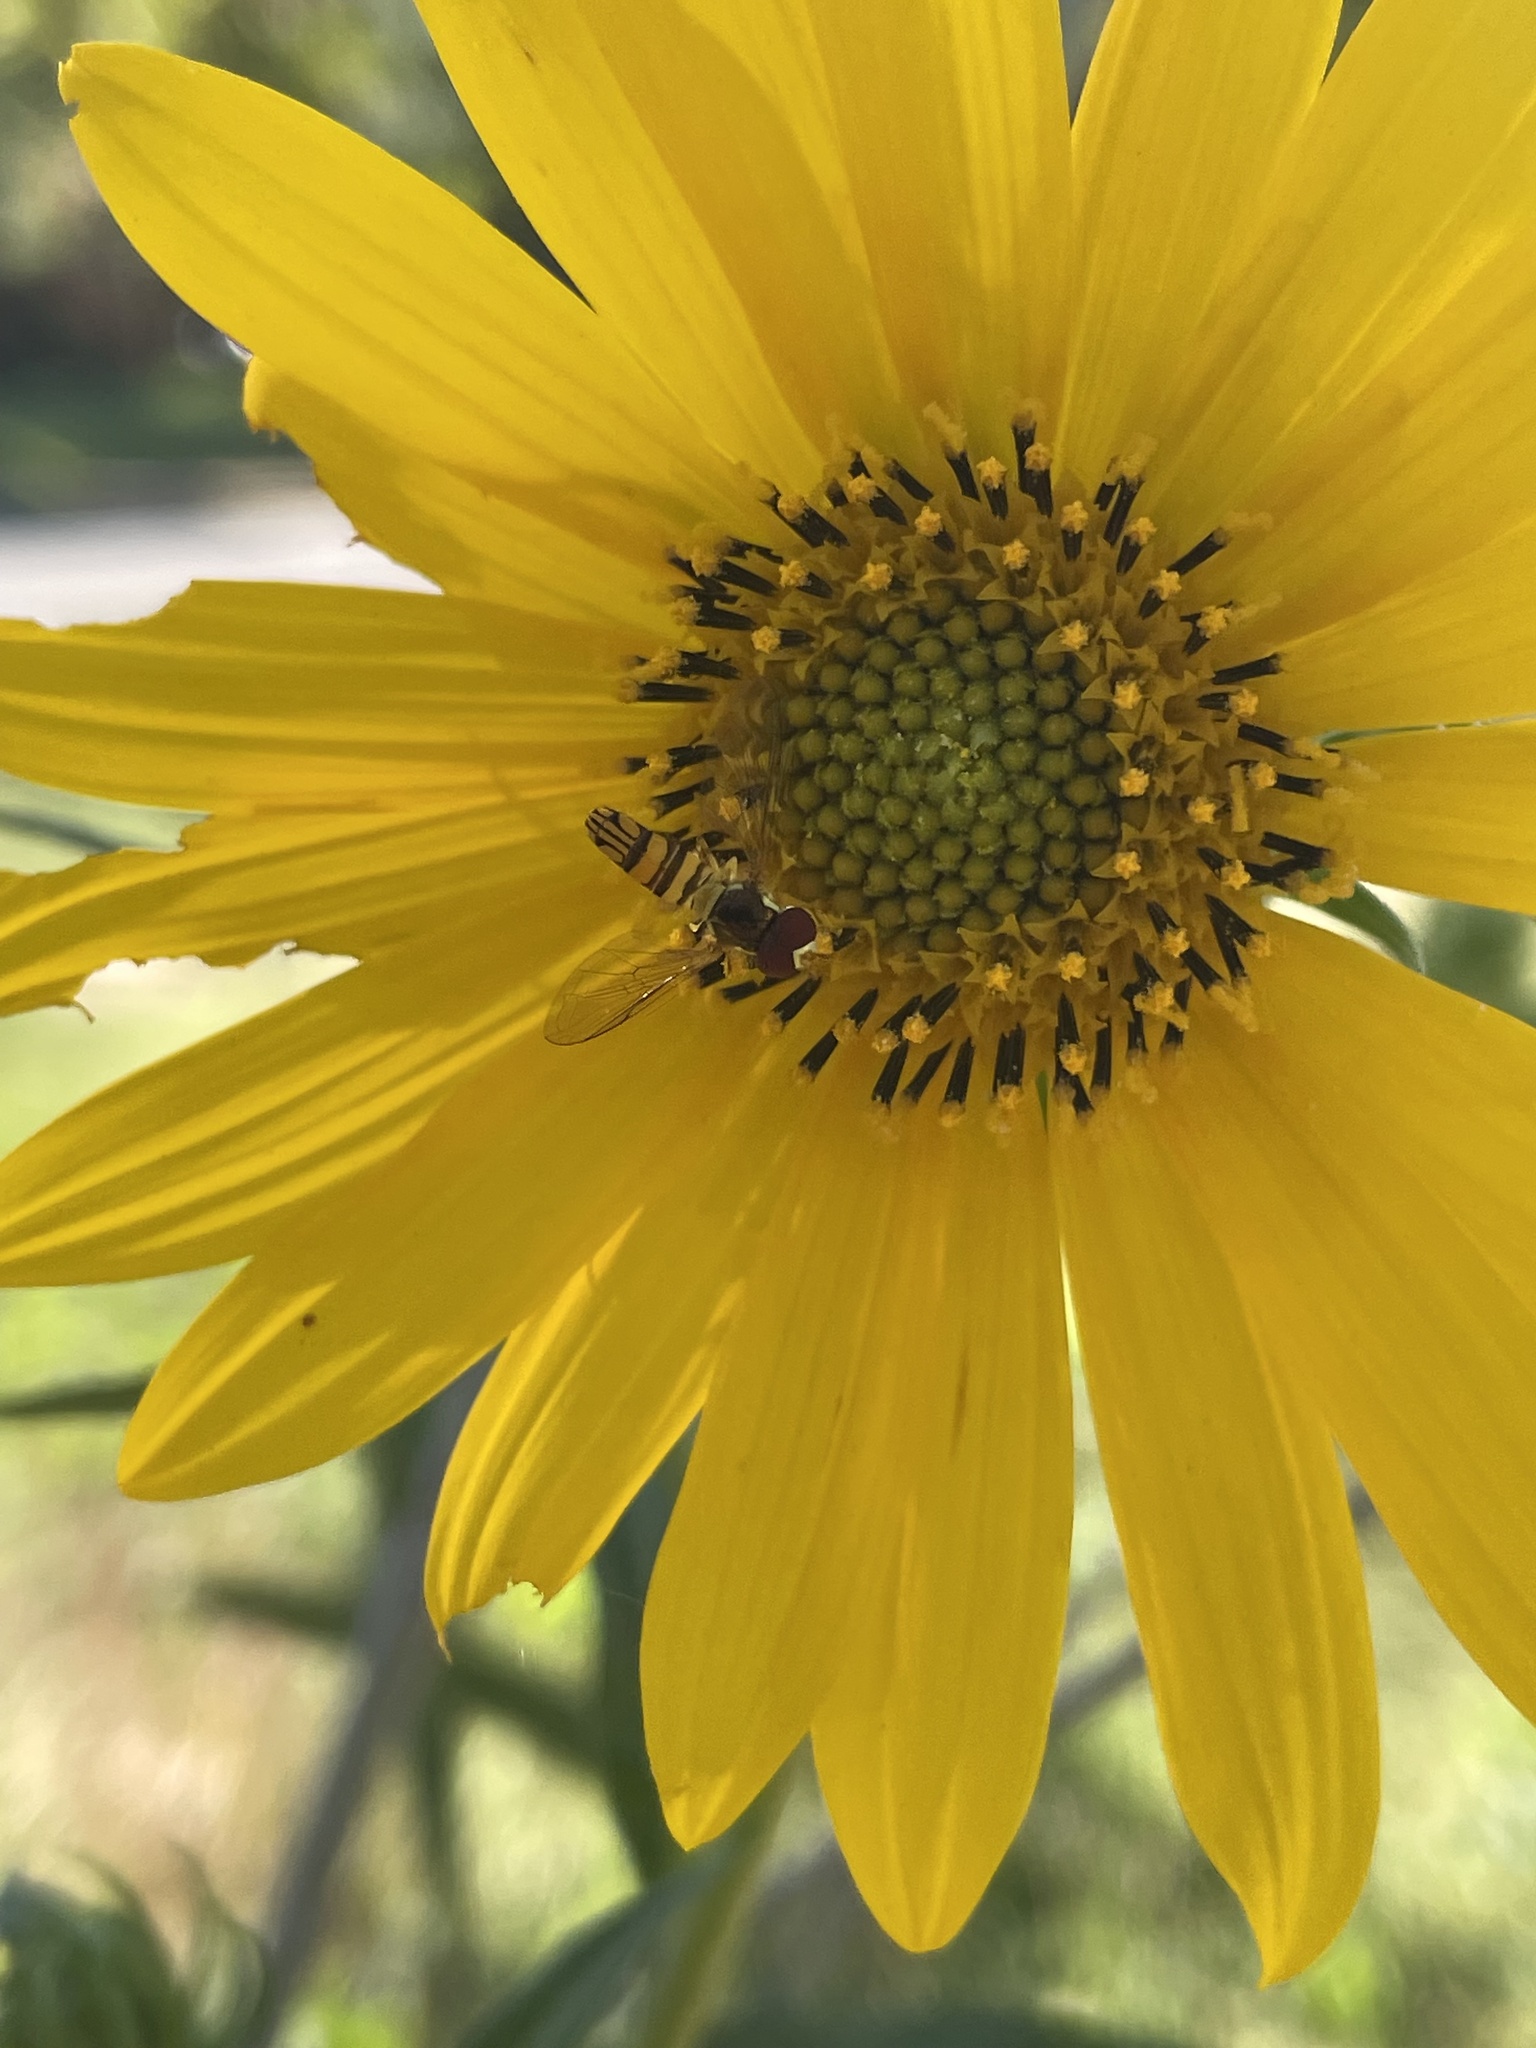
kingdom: Animalia
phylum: Arthropoda
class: Insecta
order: Diptera
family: Syrphidae
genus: Allograpta
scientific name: Allograpta obliqua
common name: Common oblique syrphid
